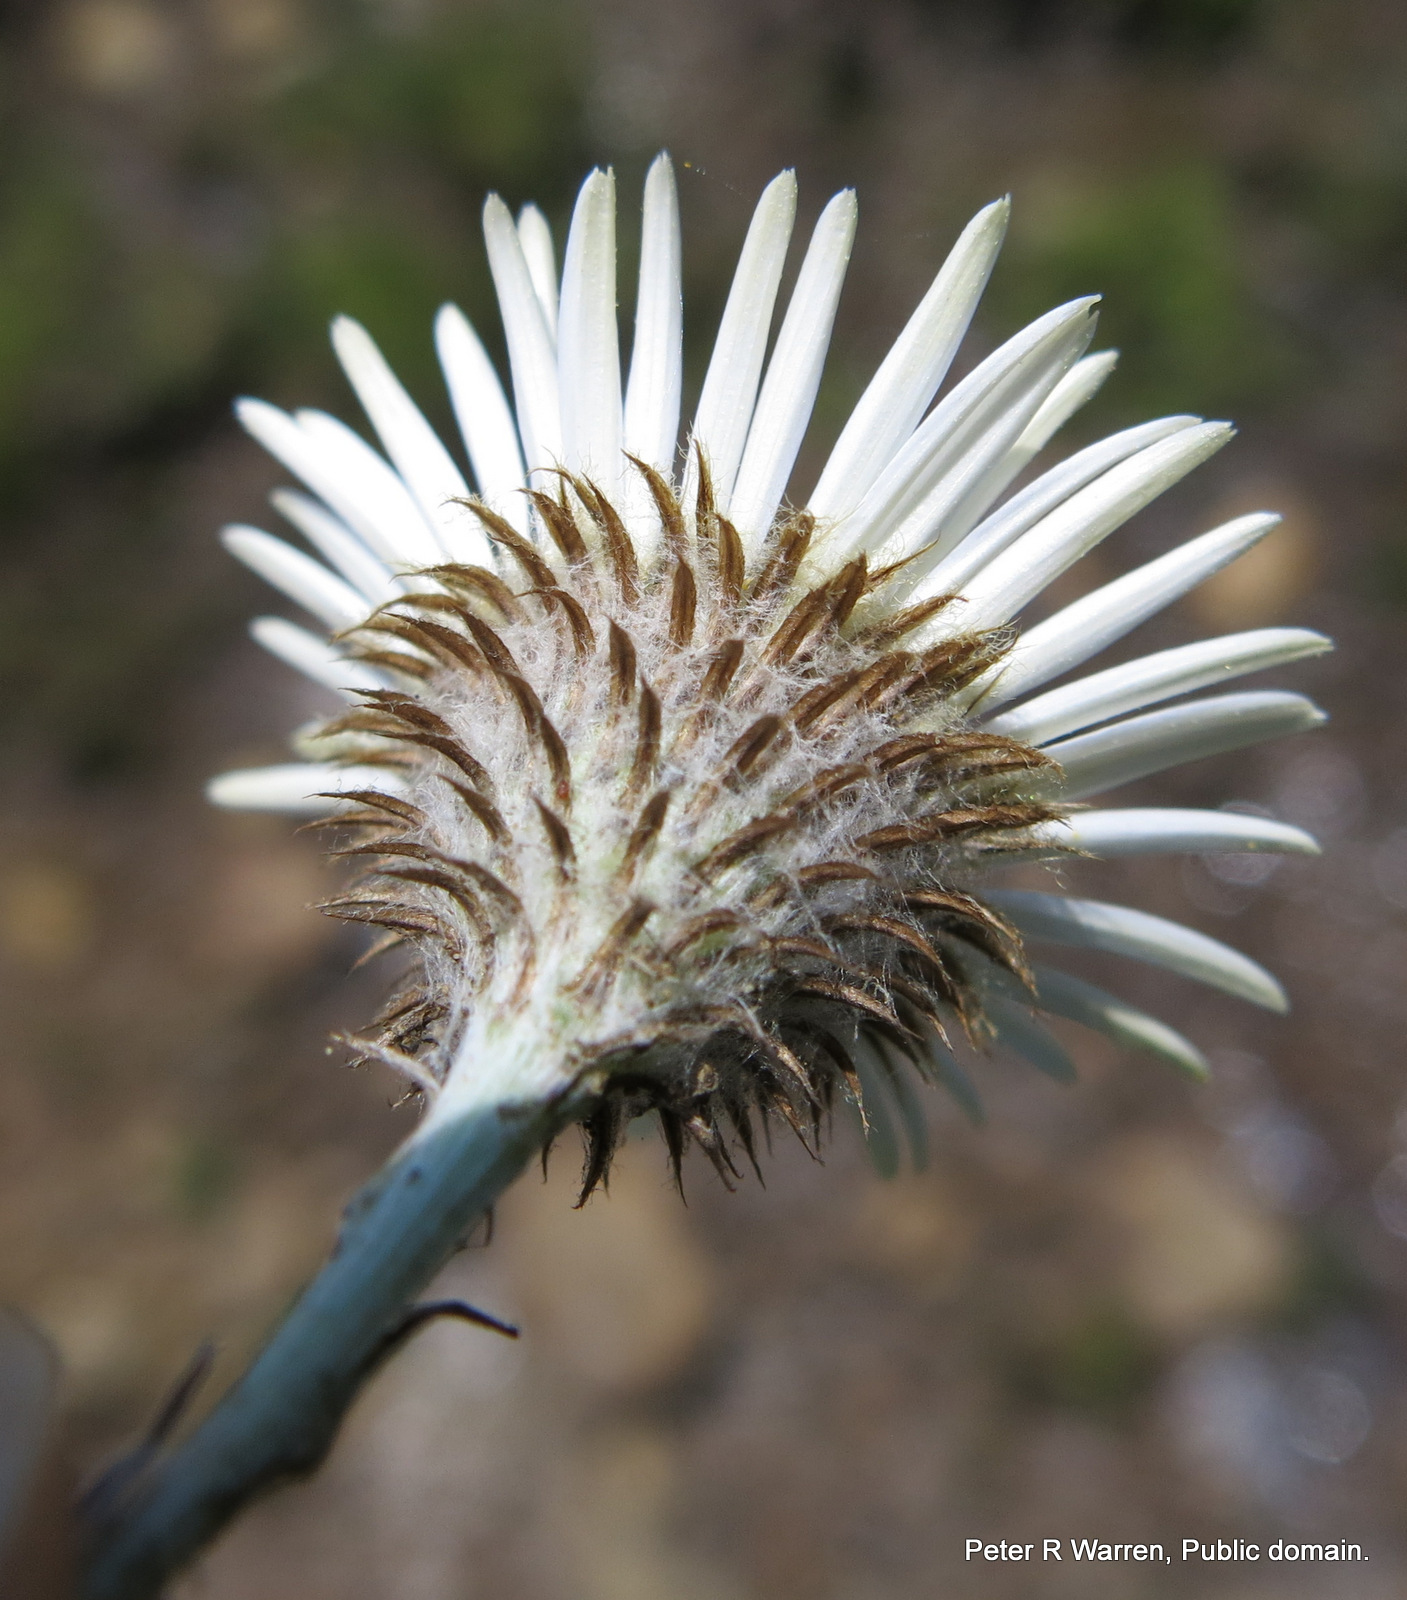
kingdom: Plantae
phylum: Tracheophyta
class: Magnoliopsida
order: Asterales
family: Asteraceae
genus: Athrixia
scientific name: Athrixia fontana
